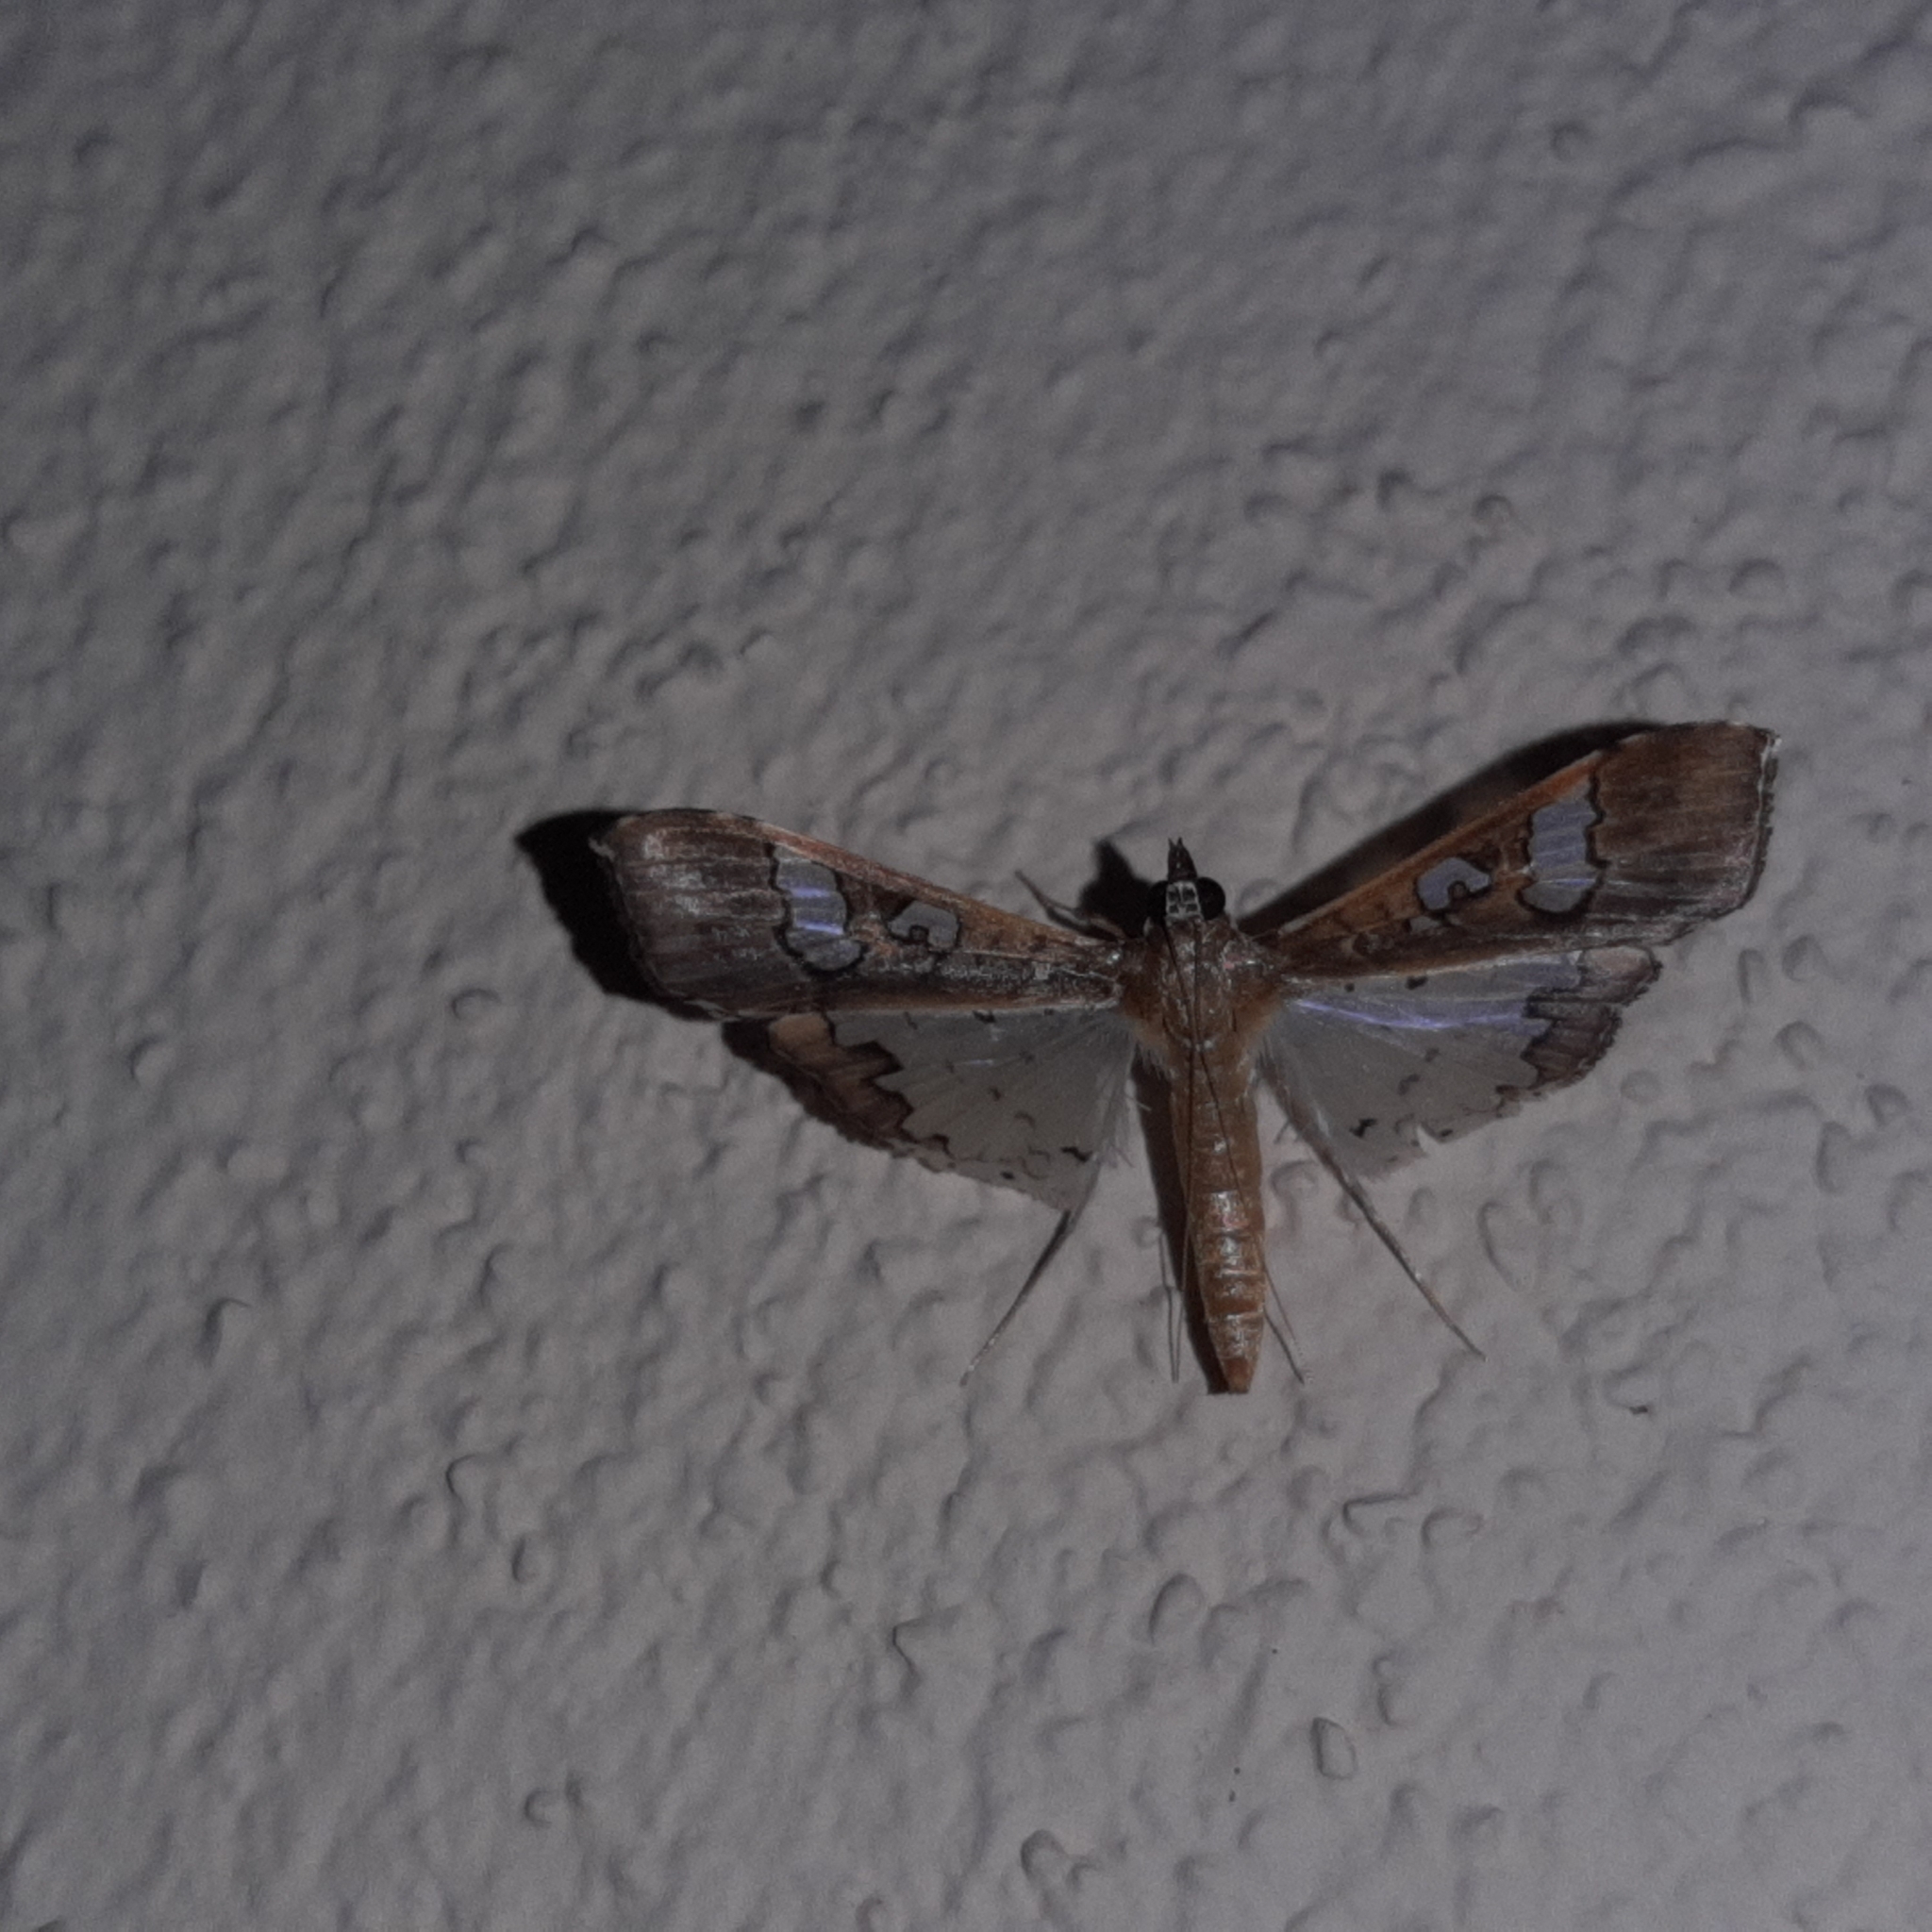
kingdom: Animalia
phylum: Arthropoda
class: Insecta
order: Lepidoptera
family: Crambidae
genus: Maruca
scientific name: Maruca vitrata
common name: Maruca pod borer
